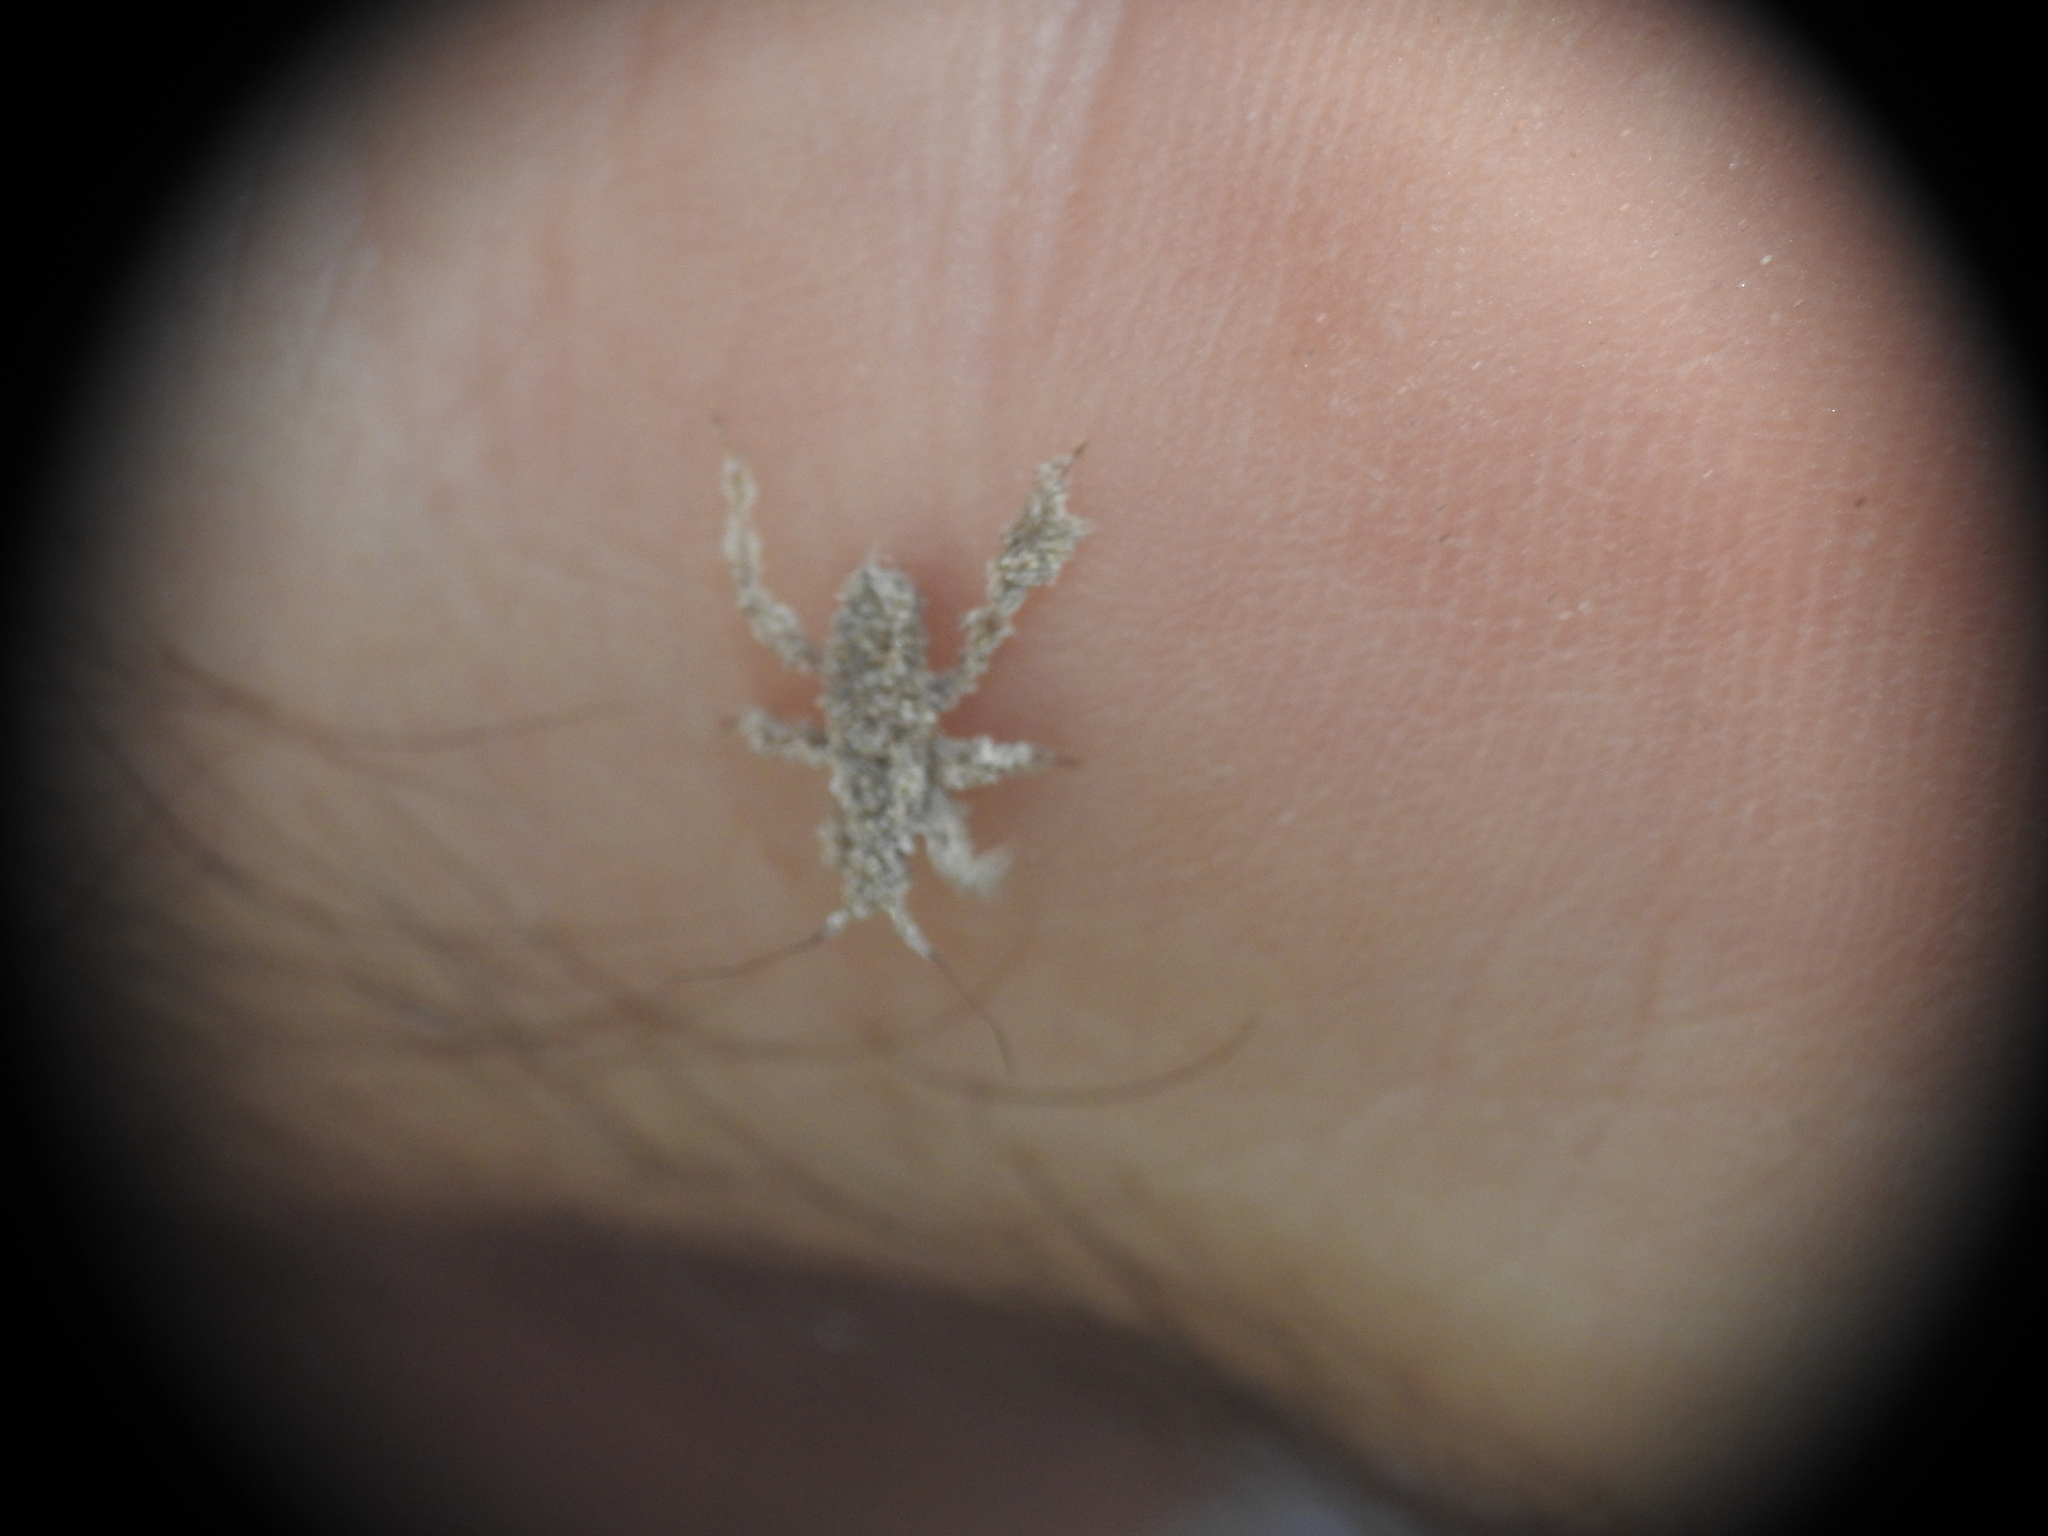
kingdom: Animalia
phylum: Arthropoda
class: Insecta
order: Hemiptera
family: Reduviidae
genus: Reduvius
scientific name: Reduvius personatus
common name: Masked hunter
